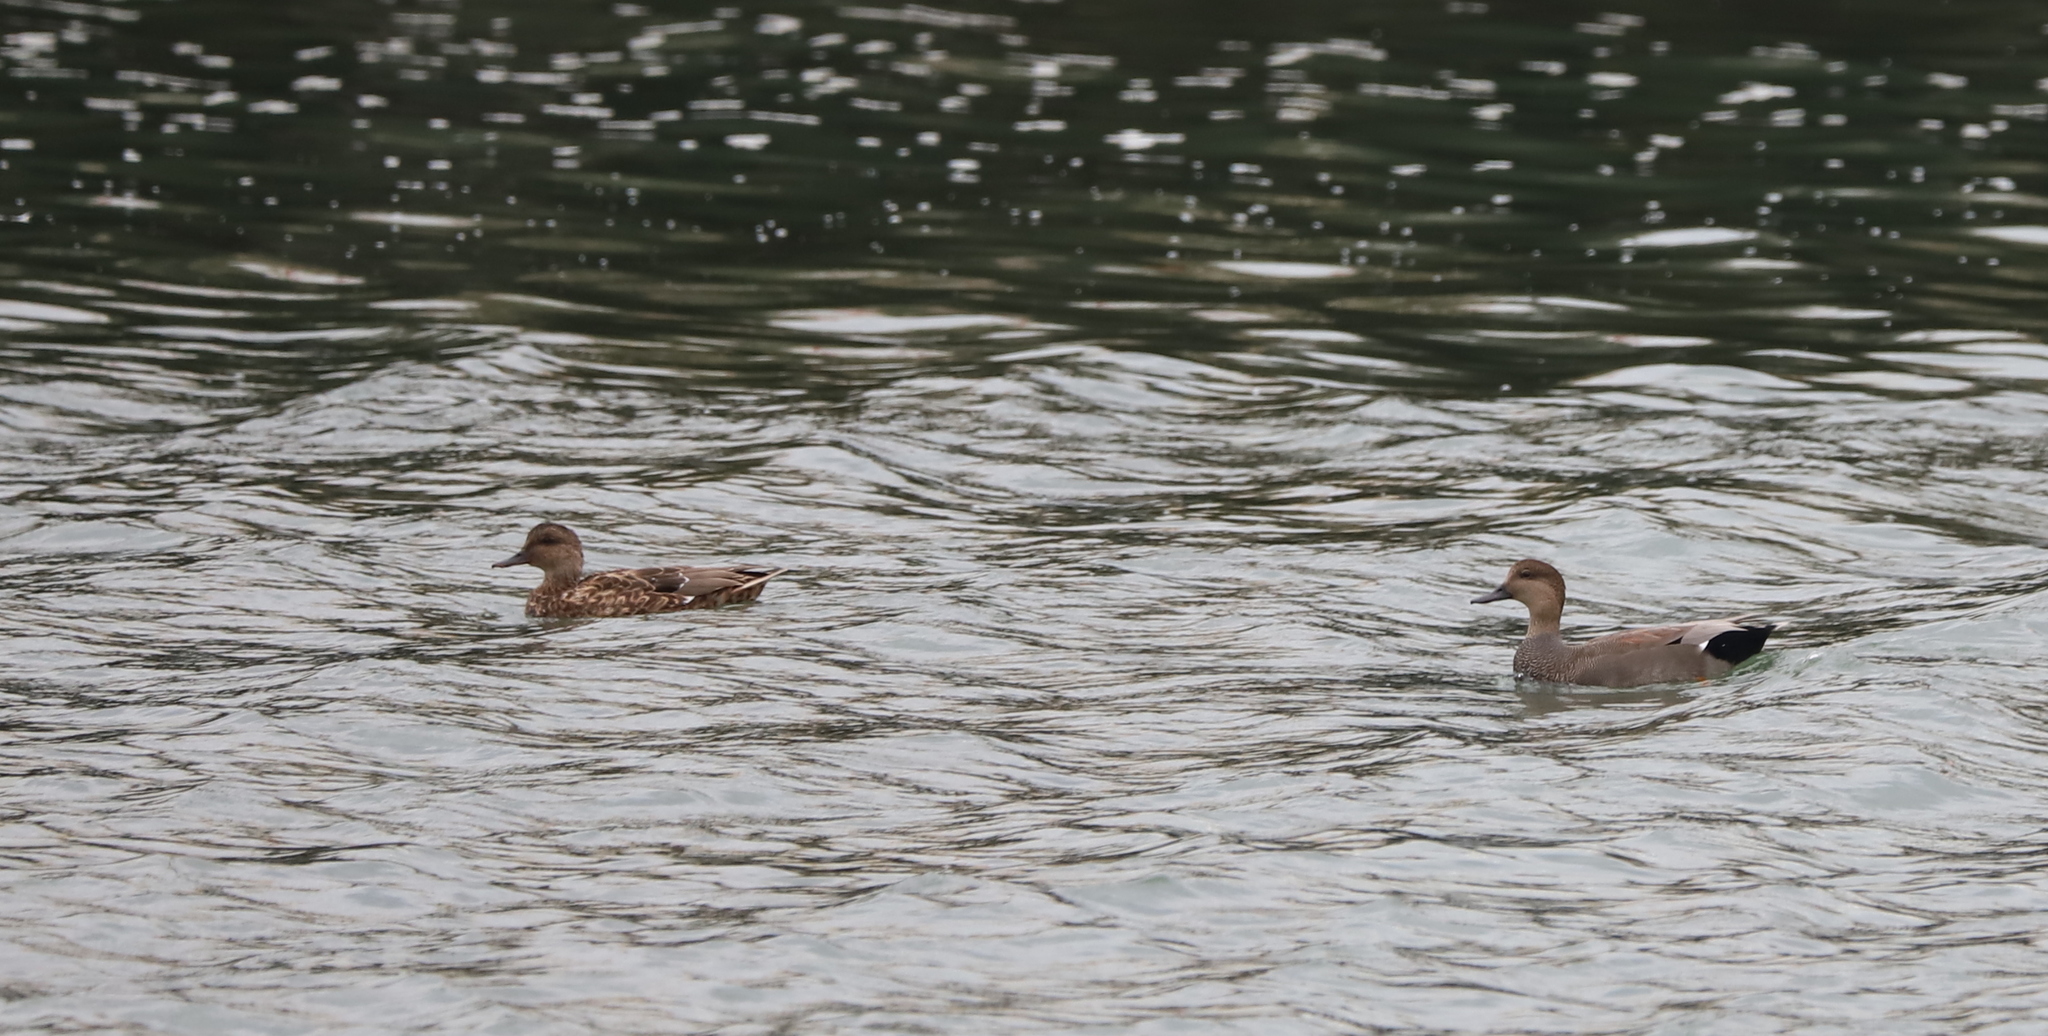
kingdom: Animalia
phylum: Chordata
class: Aves
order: Anseriformes
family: Anatidae
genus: Mareca
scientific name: Mareca strepera
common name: Gadwall
